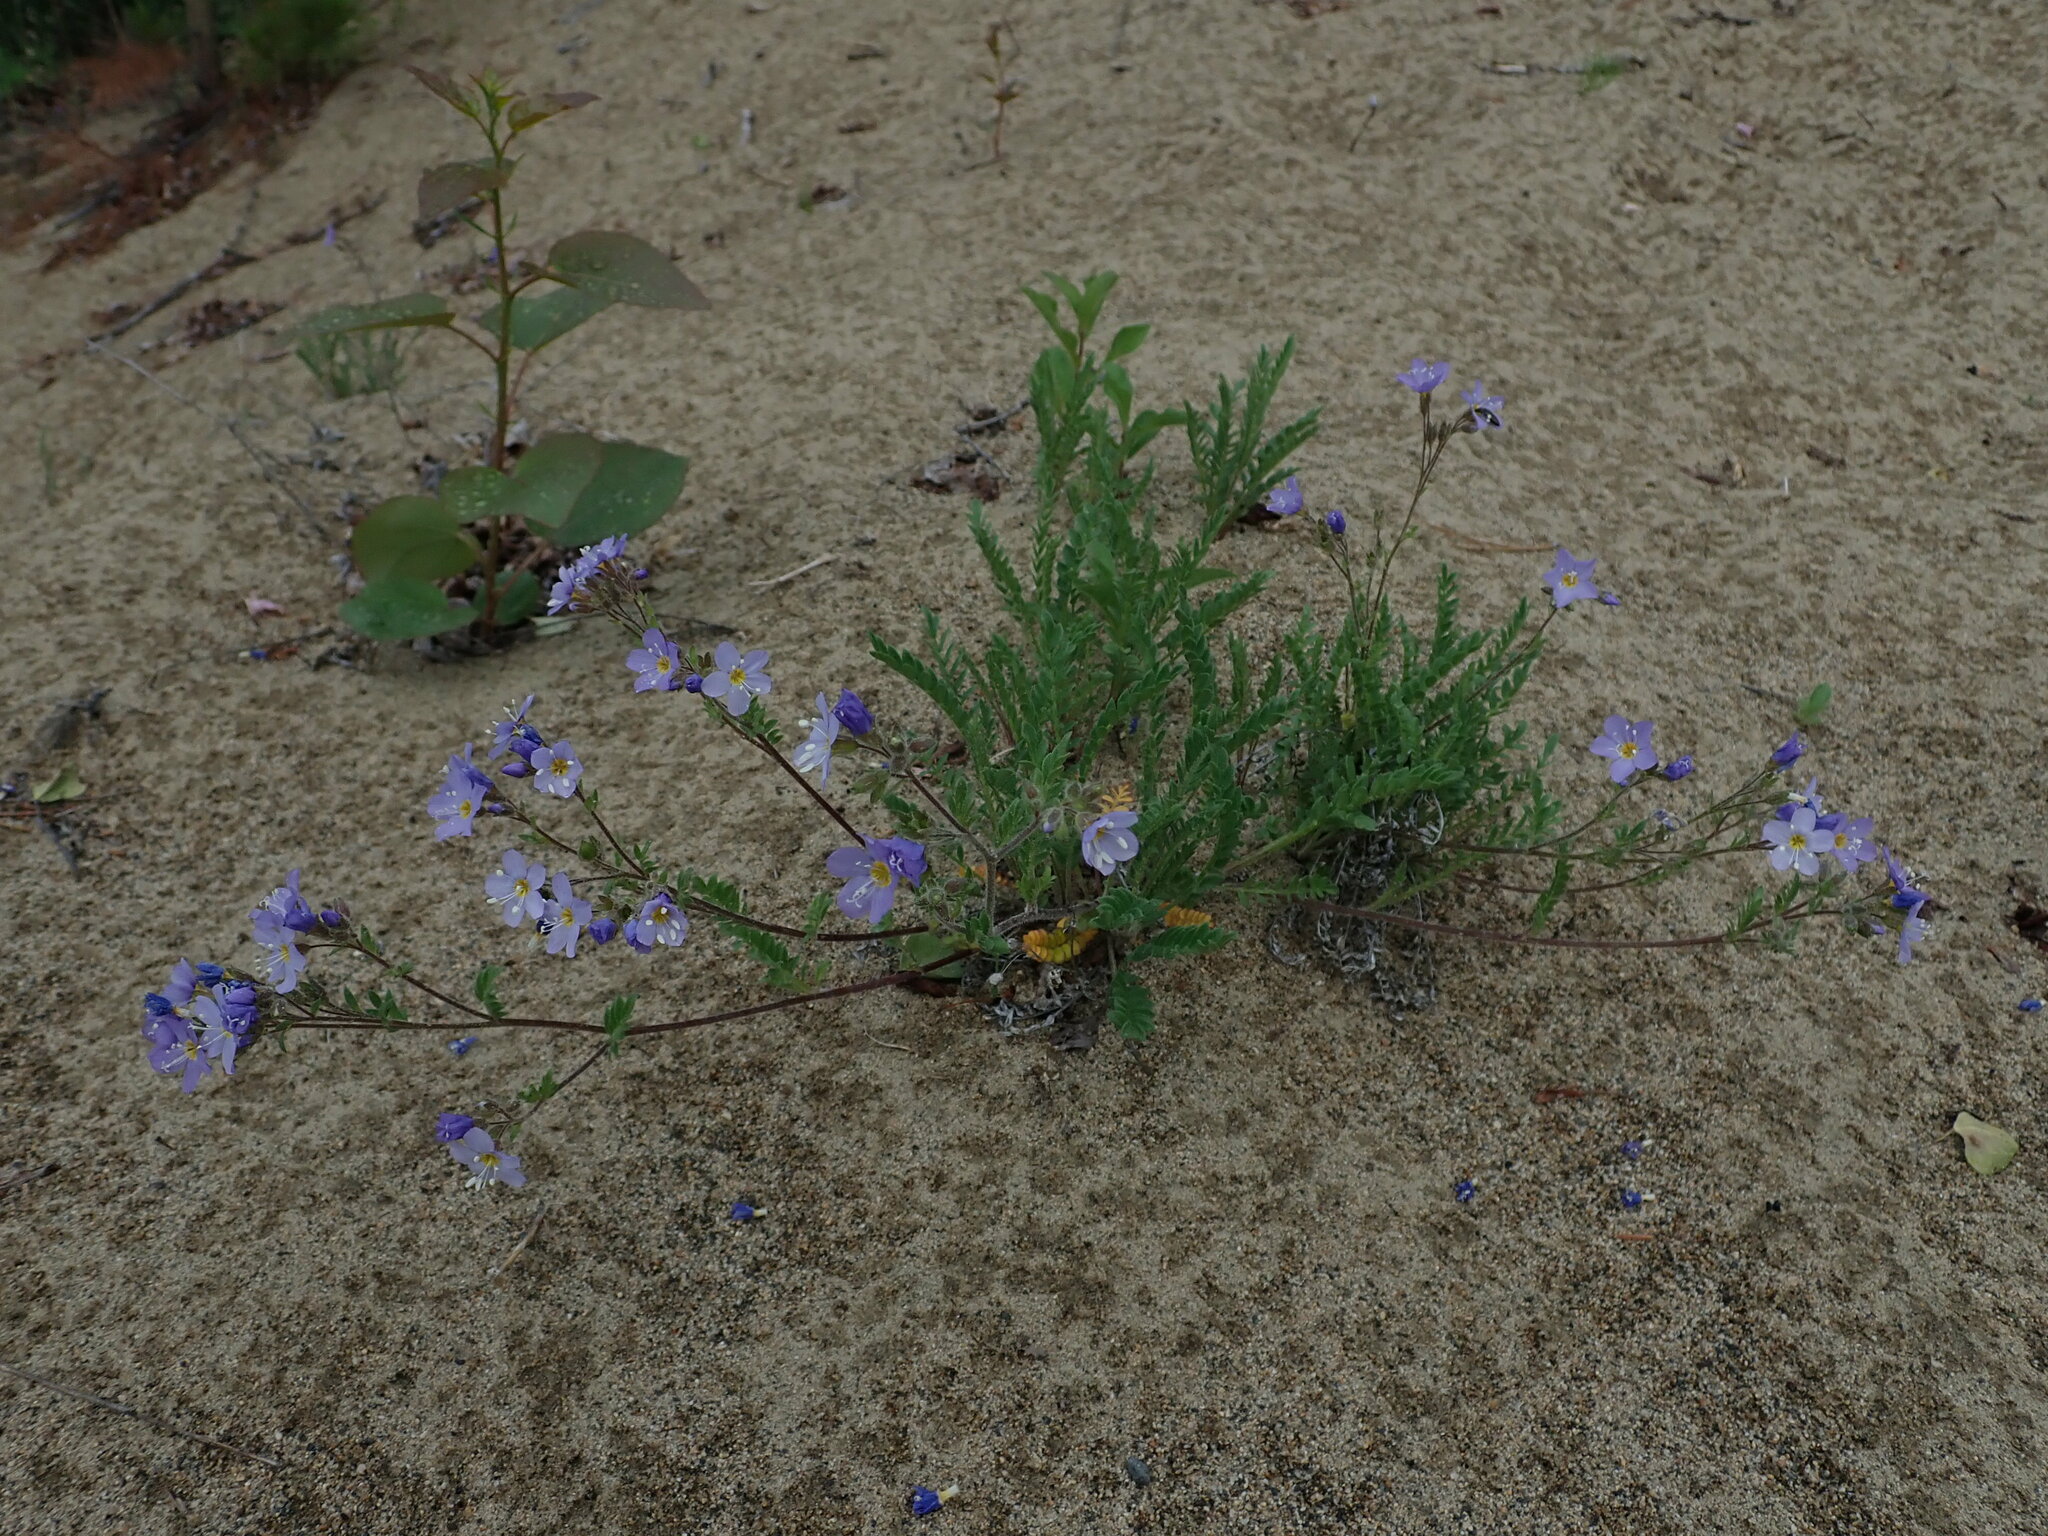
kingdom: Plantae
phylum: Tracheophyta
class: Magnoliopsida
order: Ericales
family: Polemoniaceae
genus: Polemonium
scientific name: Polemonium pulcherrimum
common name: Short jacob's-ladder
